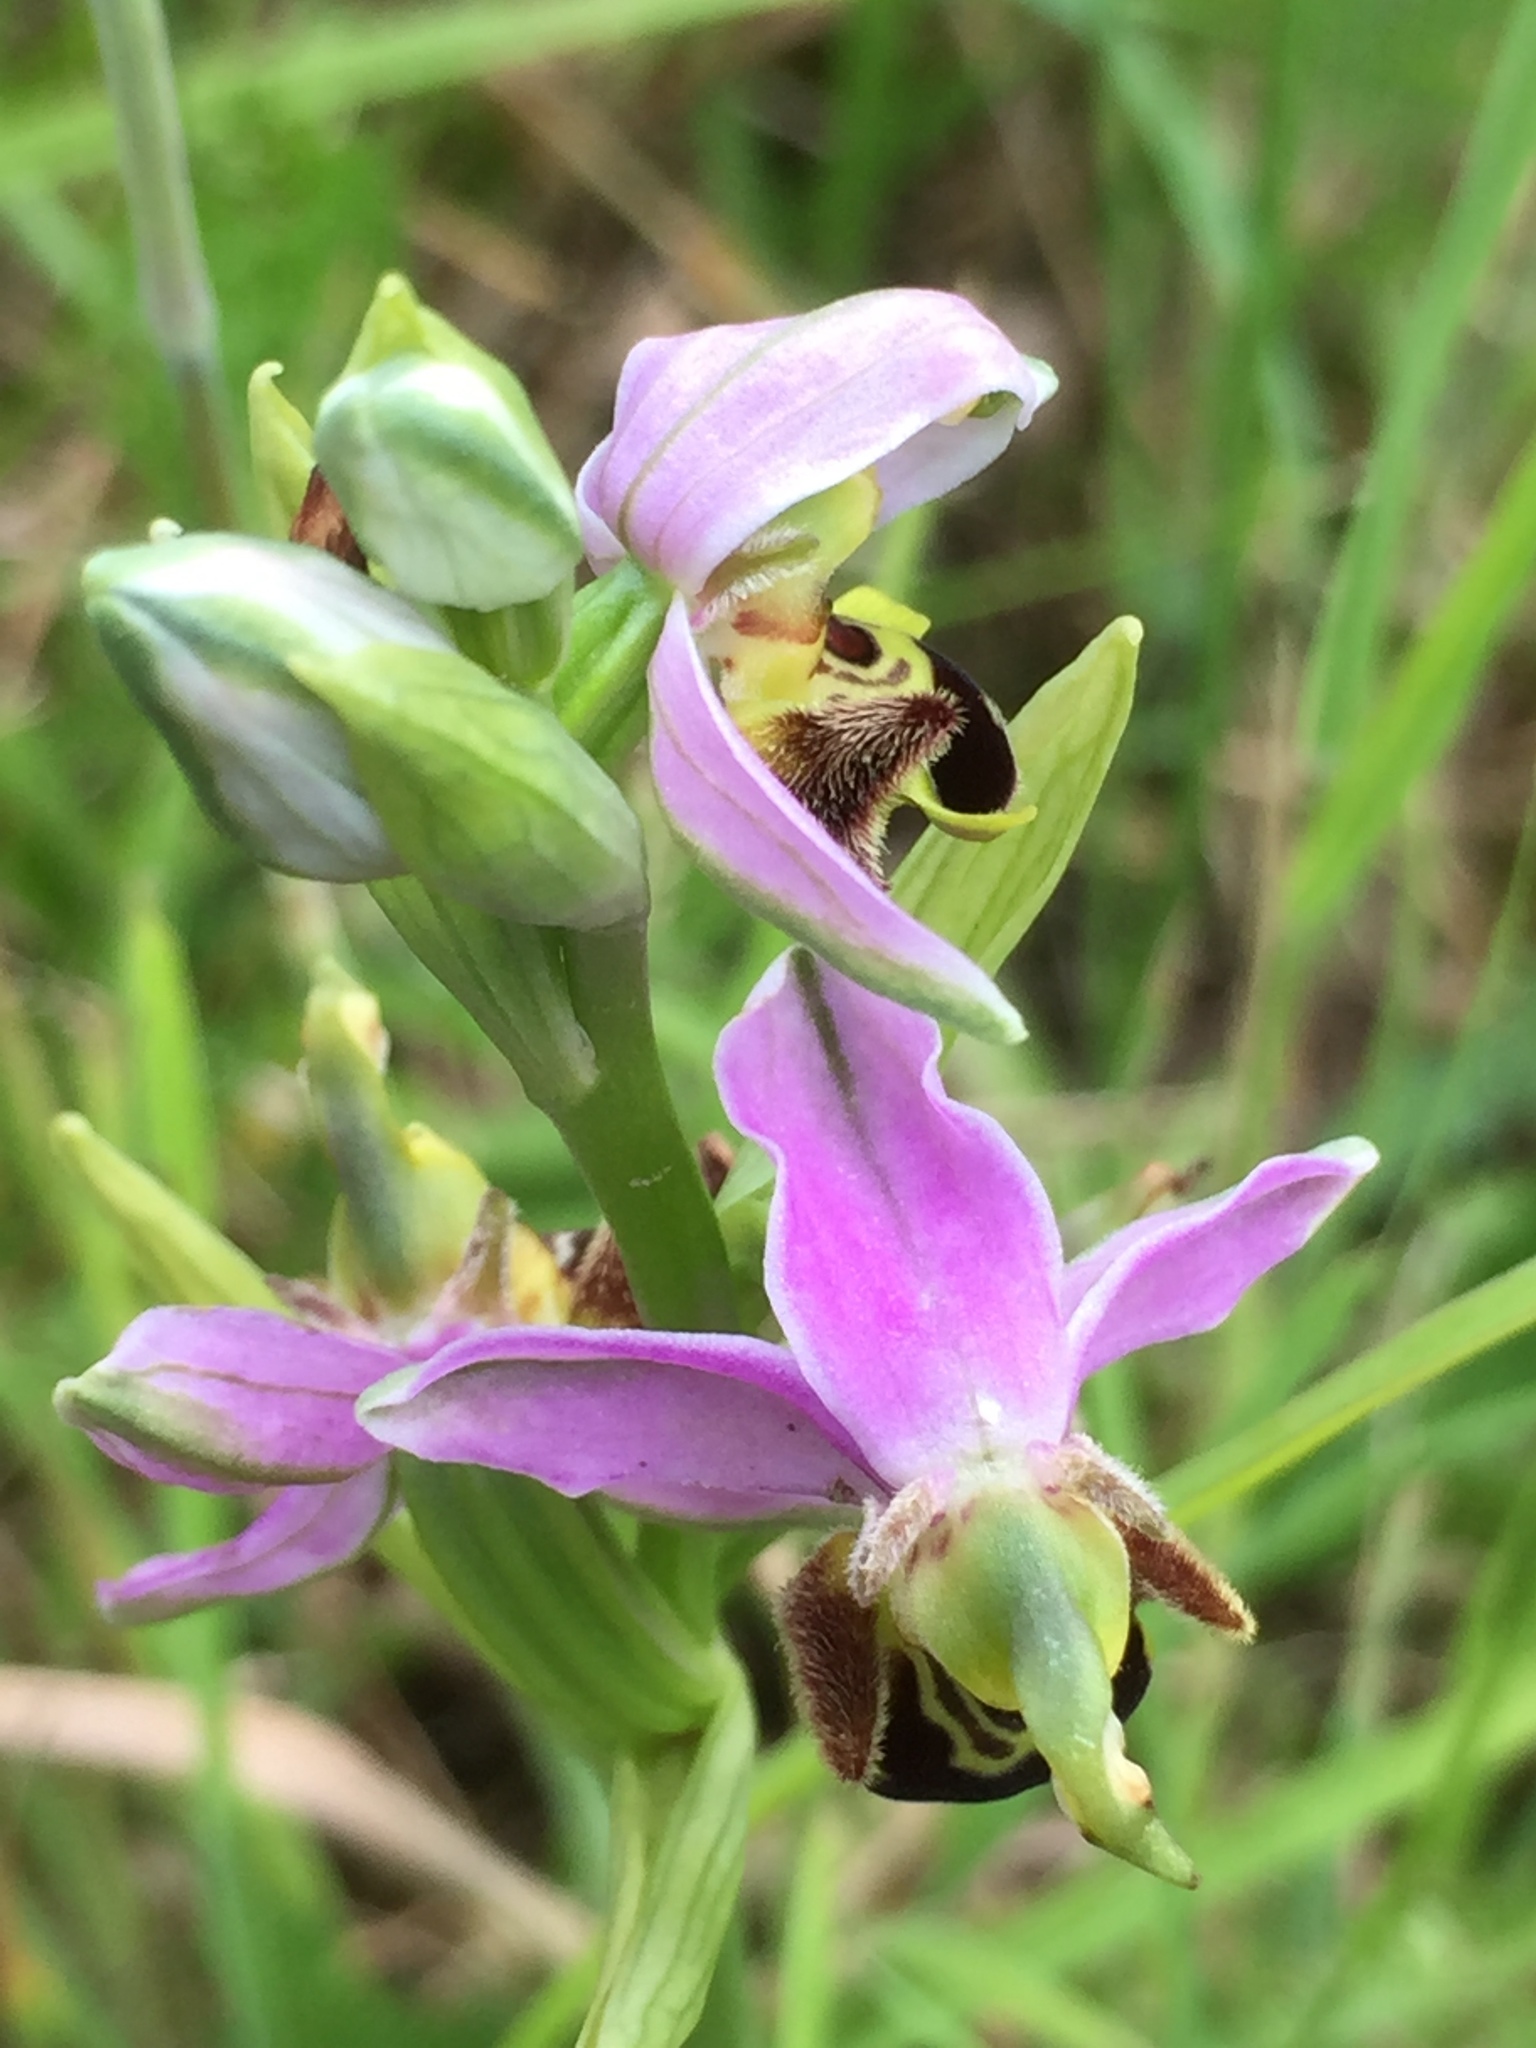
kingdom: Plantae
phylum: Tracheophyta
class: Liliopsida
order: Asparagales
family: Orchidaceae
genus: Ophrys
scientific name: Ophrys apifera
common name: Bee orchid
